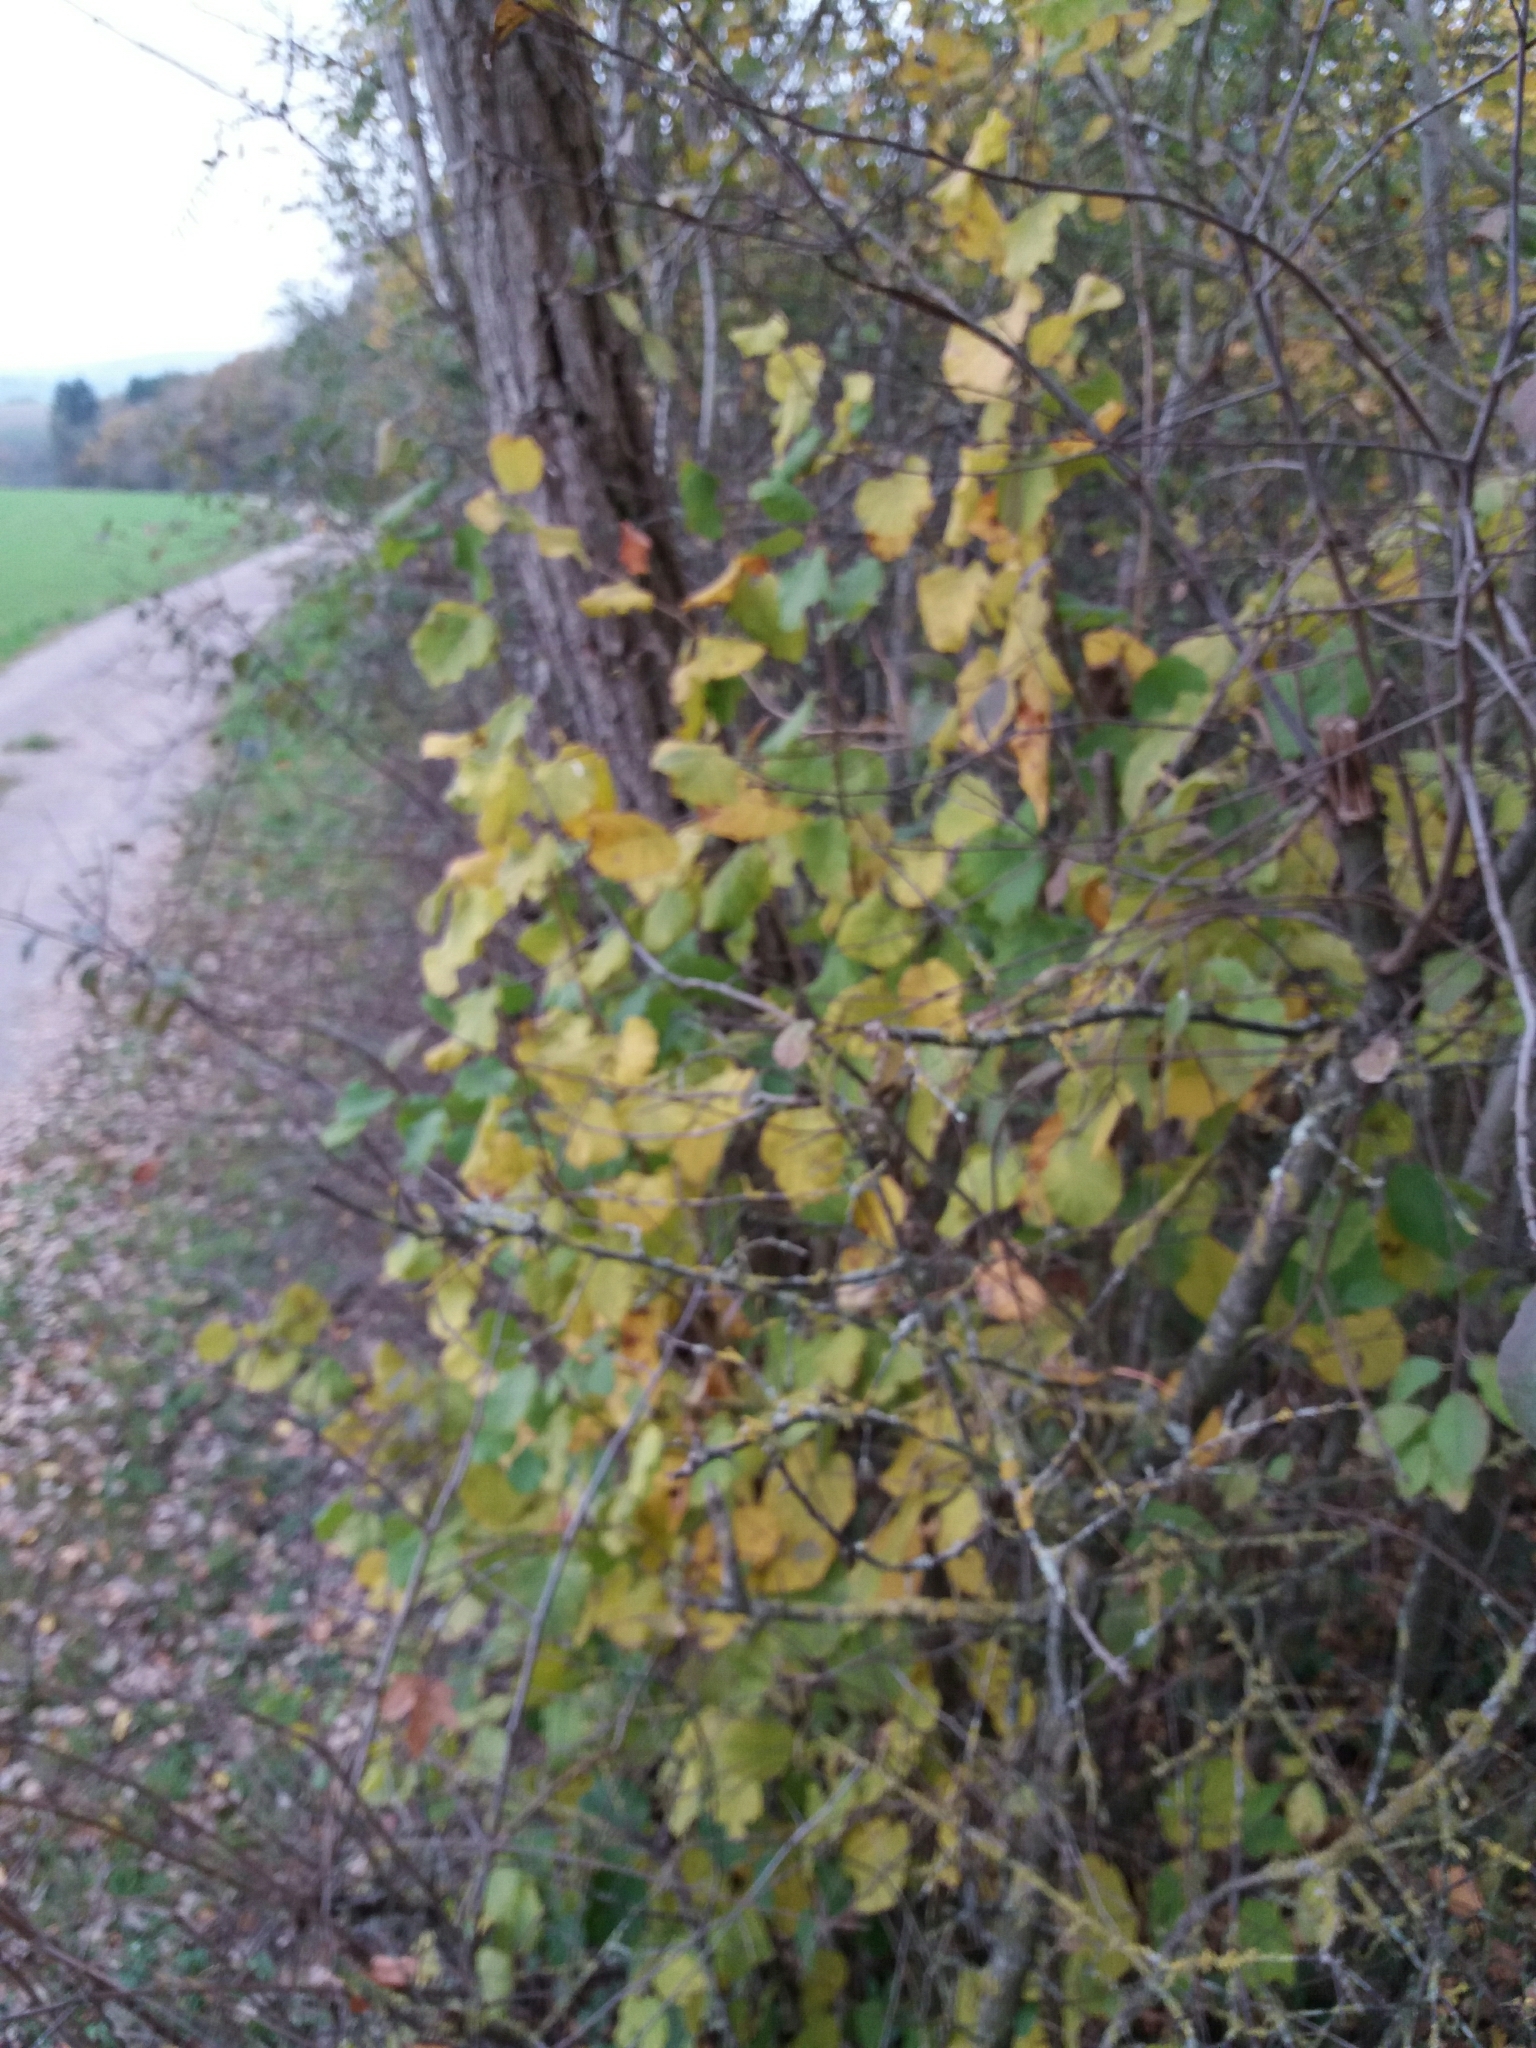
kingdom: Plantae
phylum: Tracheophyta
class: Magnoliopsida
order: Fagales
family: Betulaceae
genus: Corylus
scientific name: Corylus avellana
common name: European hazel
